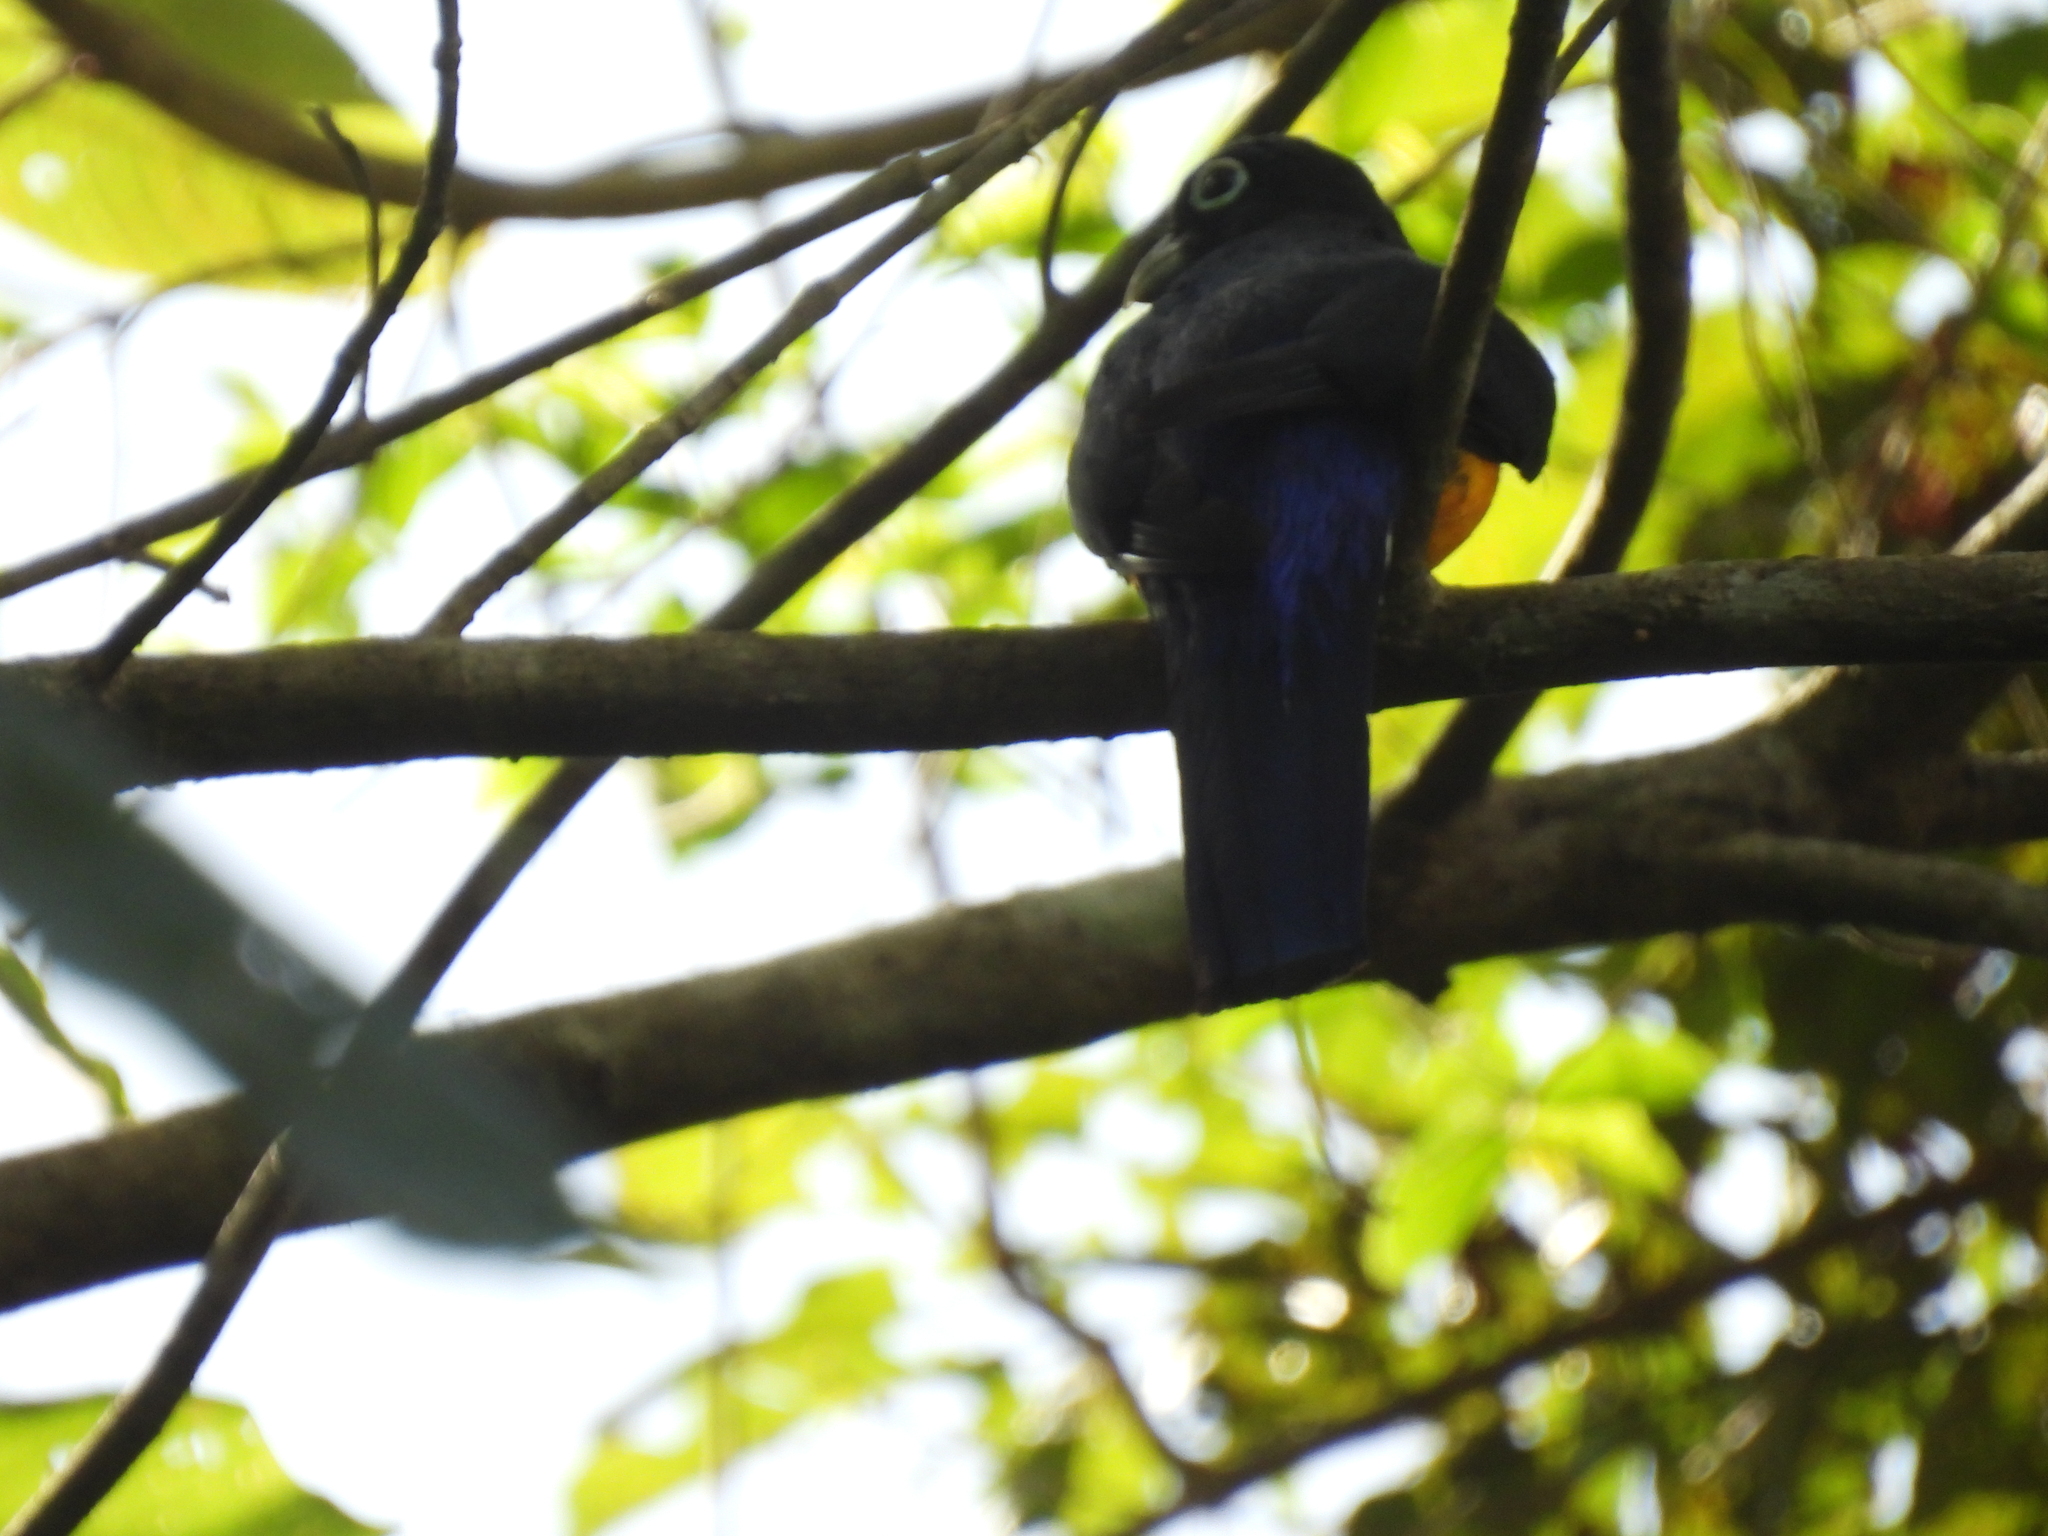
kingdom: Animalia
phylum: Chordata
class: Aves
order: Trogoniformes
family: Trogonidae
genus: Trogon
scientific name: Trogon chionurus
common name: White-tailed trogon
